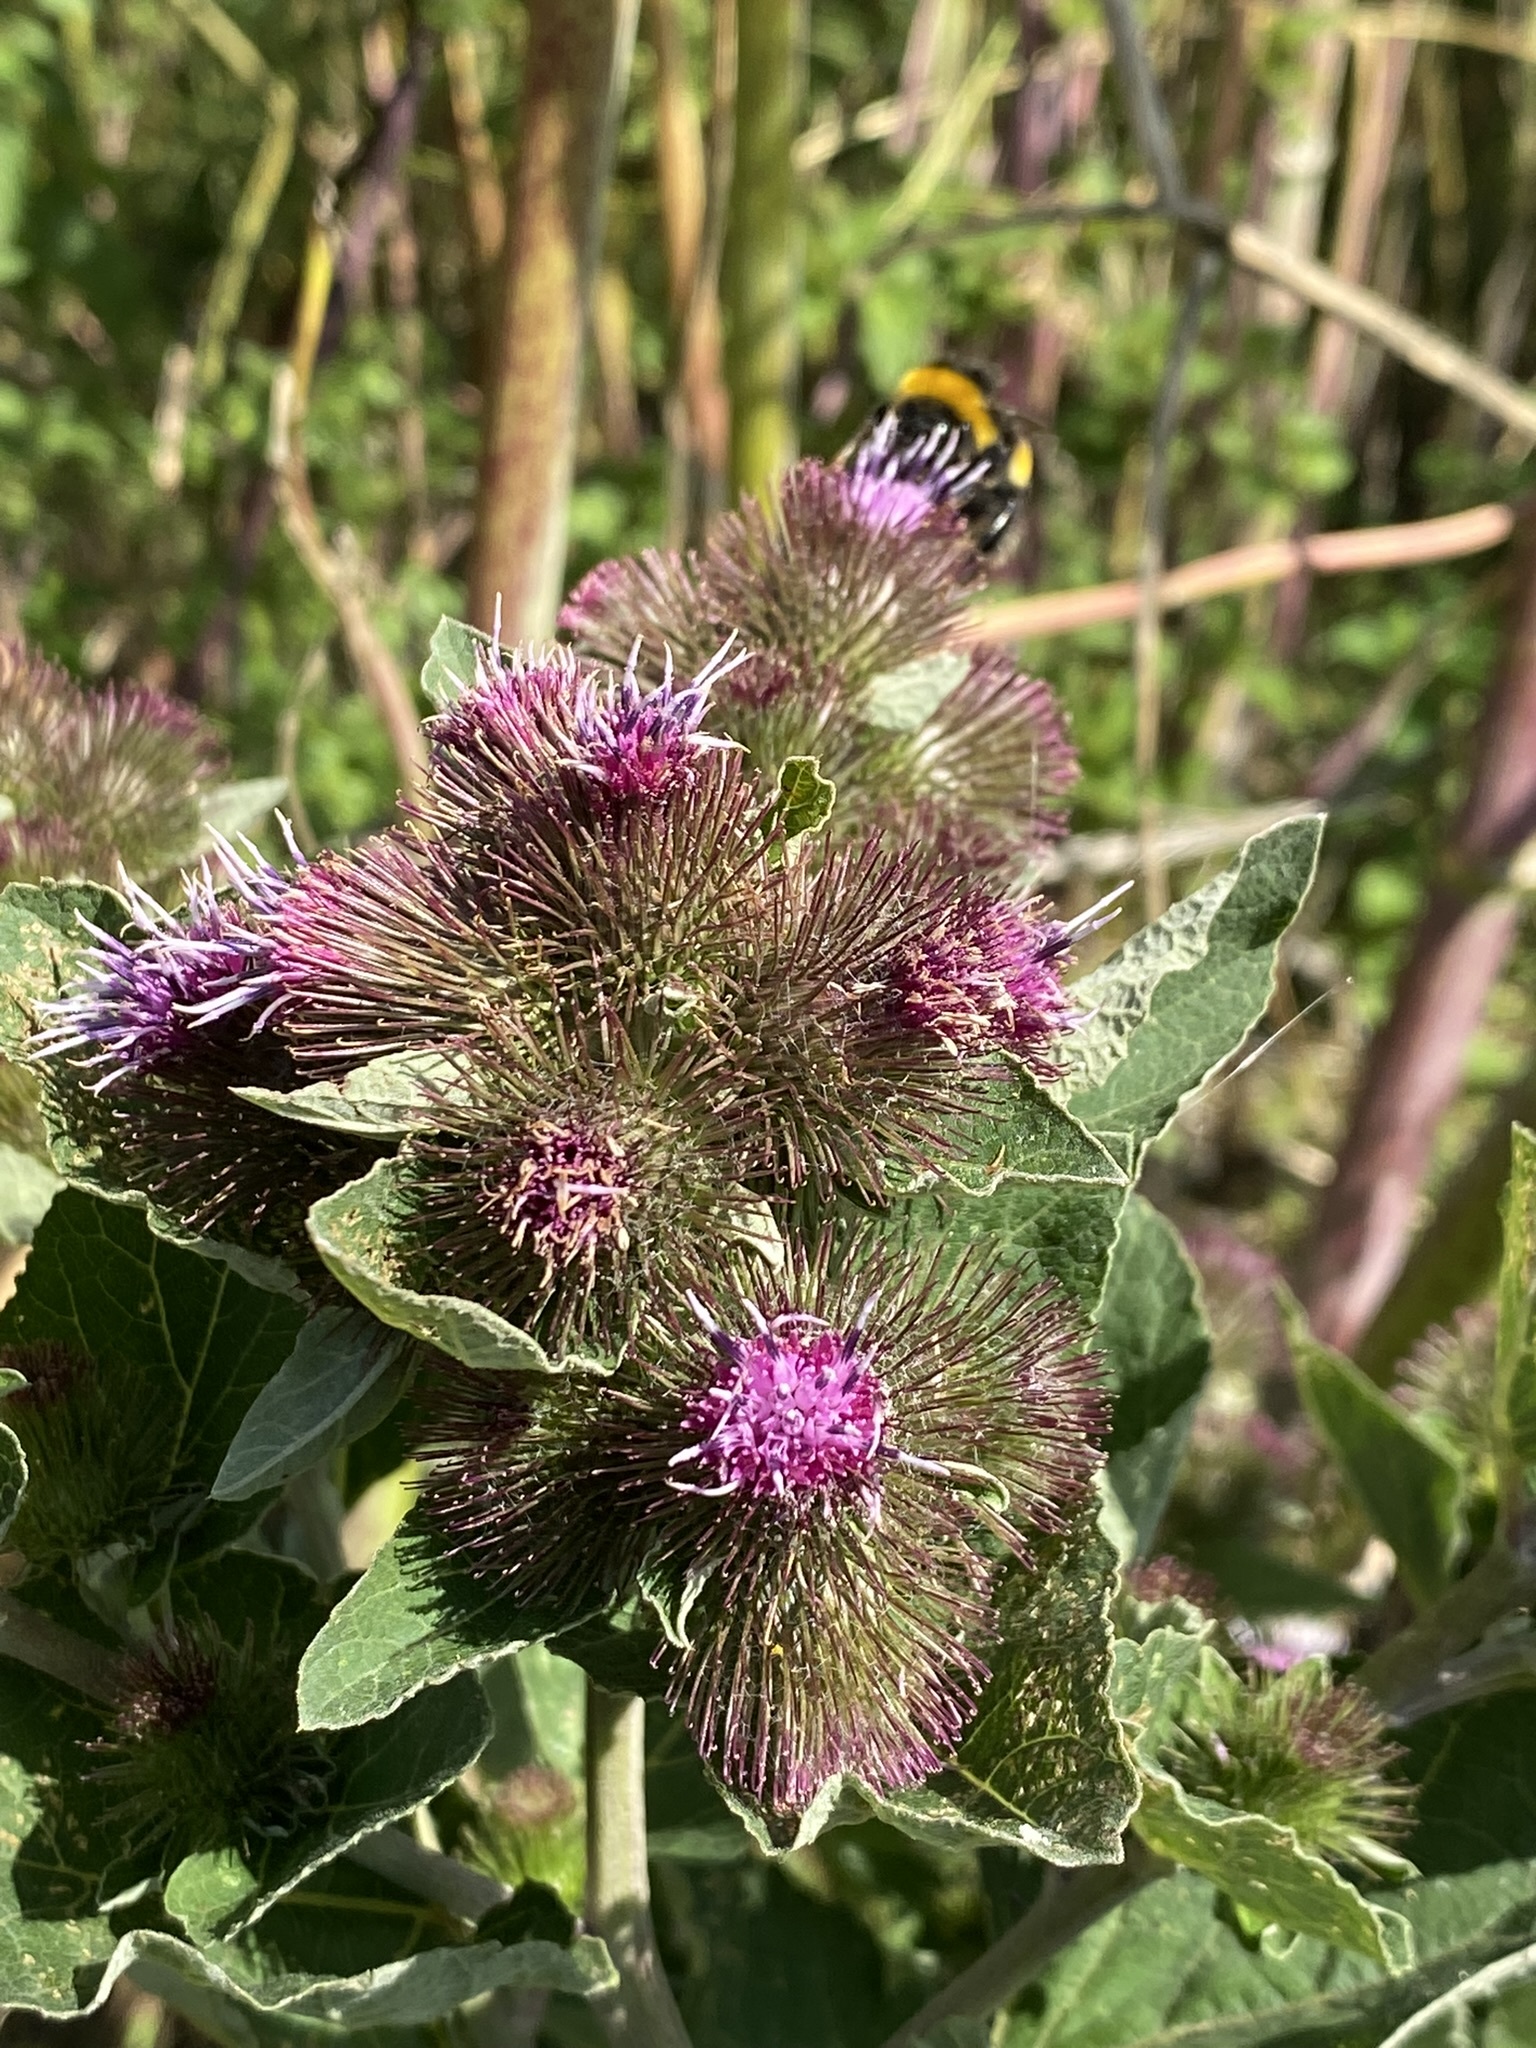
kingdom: Plantae
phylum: Tracheophyta
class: Magnoliopsida
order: Asterales
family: Asteraceae
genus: Arctium
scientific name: Arctium minus
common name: Lesser burdock
